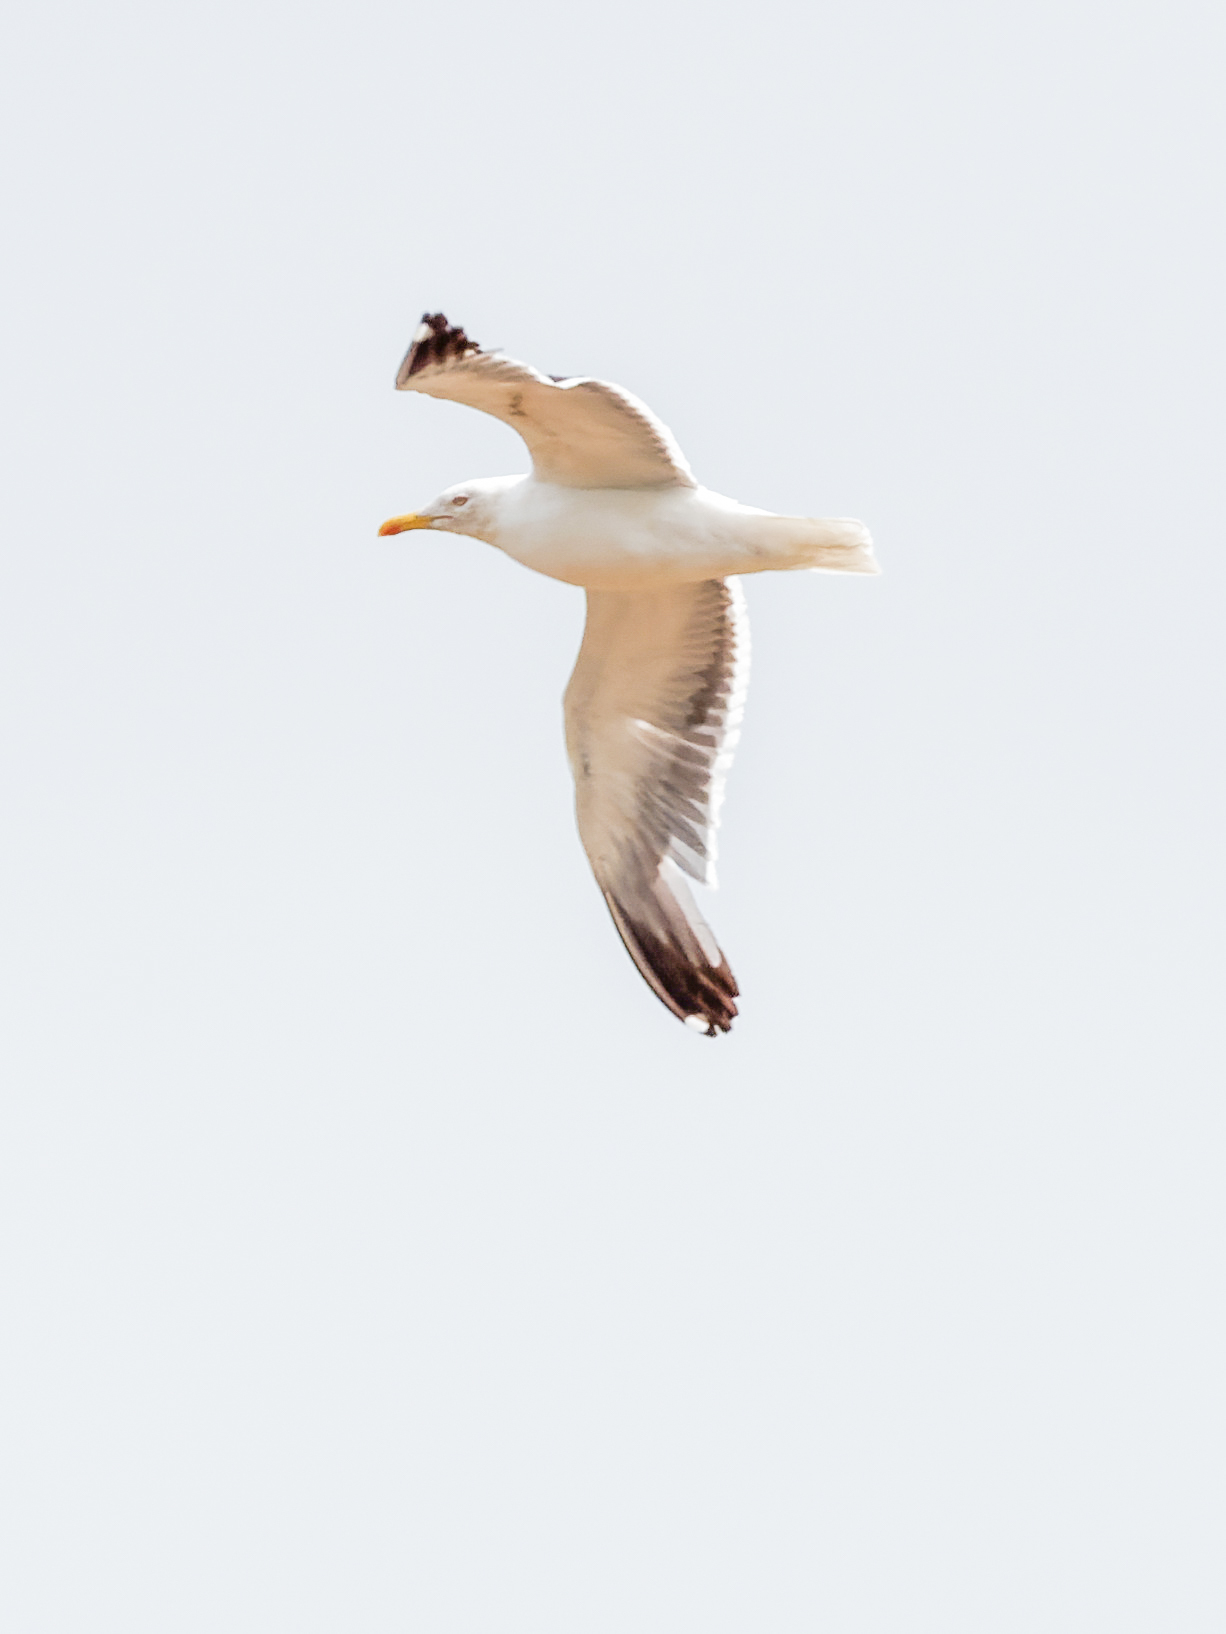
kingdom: Animalia
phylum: Chordata
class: Aves
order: Charadriiformes
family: Laridae
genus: Larus
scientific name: Larus fuscus
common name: Lesser black-backed gull
